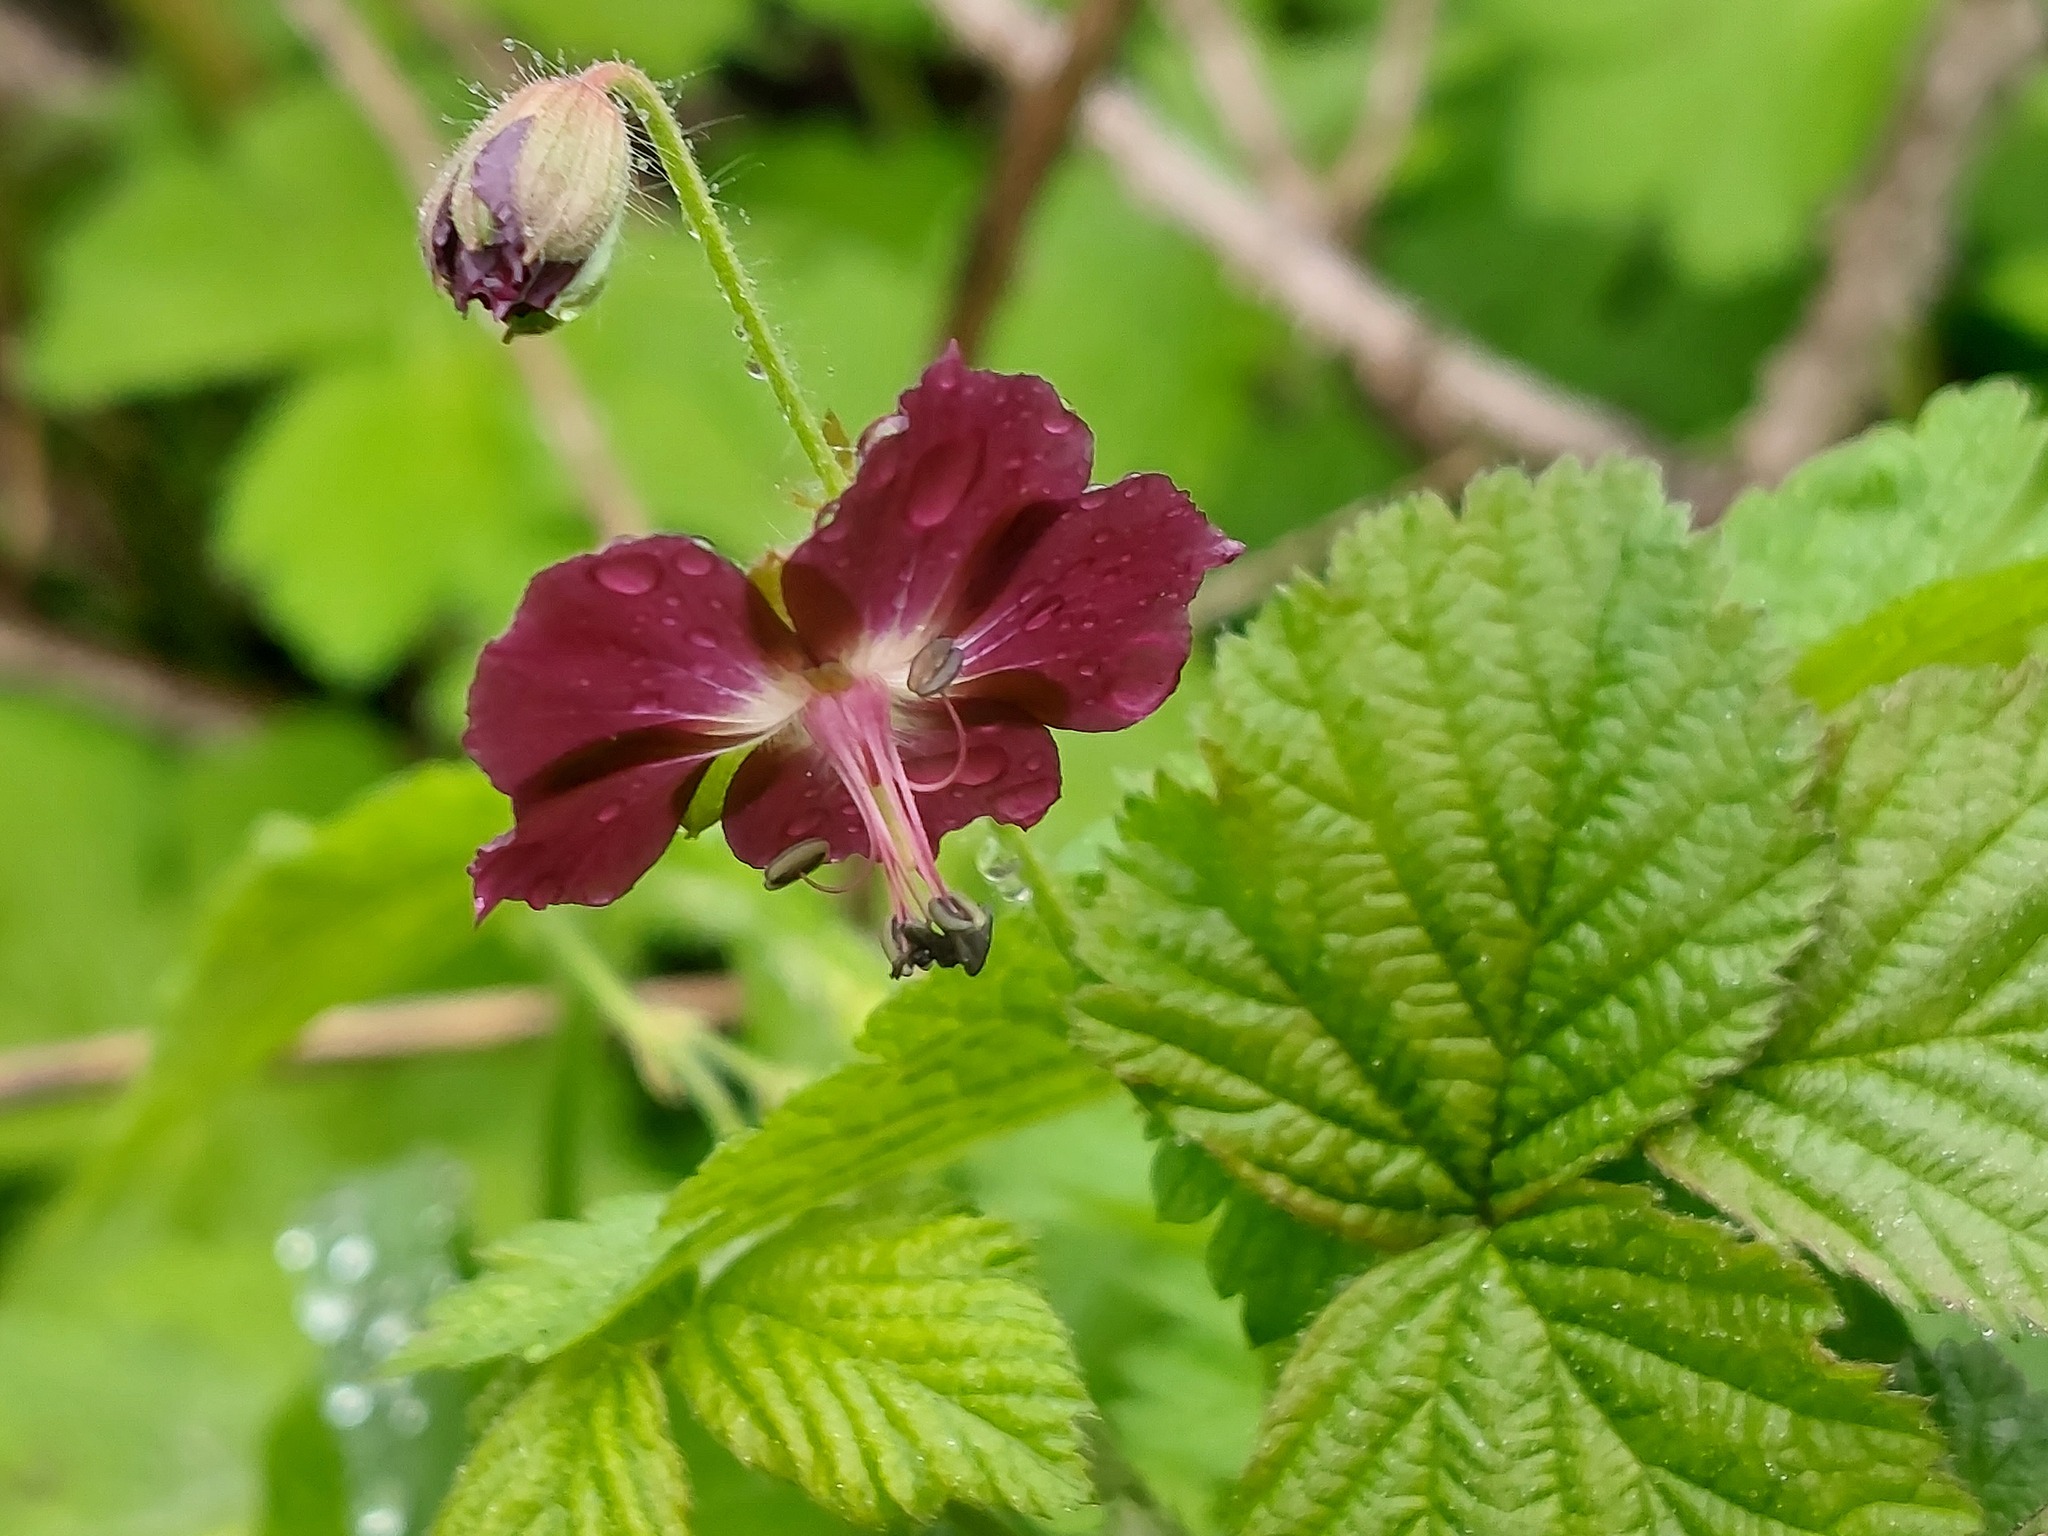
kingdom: Plantae
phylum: Tracheophyta
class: Magnoliopsida
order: Geraniales
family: Geraniaceae
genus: Geranium
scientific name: Geranium phaeum
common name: Dusky crane's-bill
